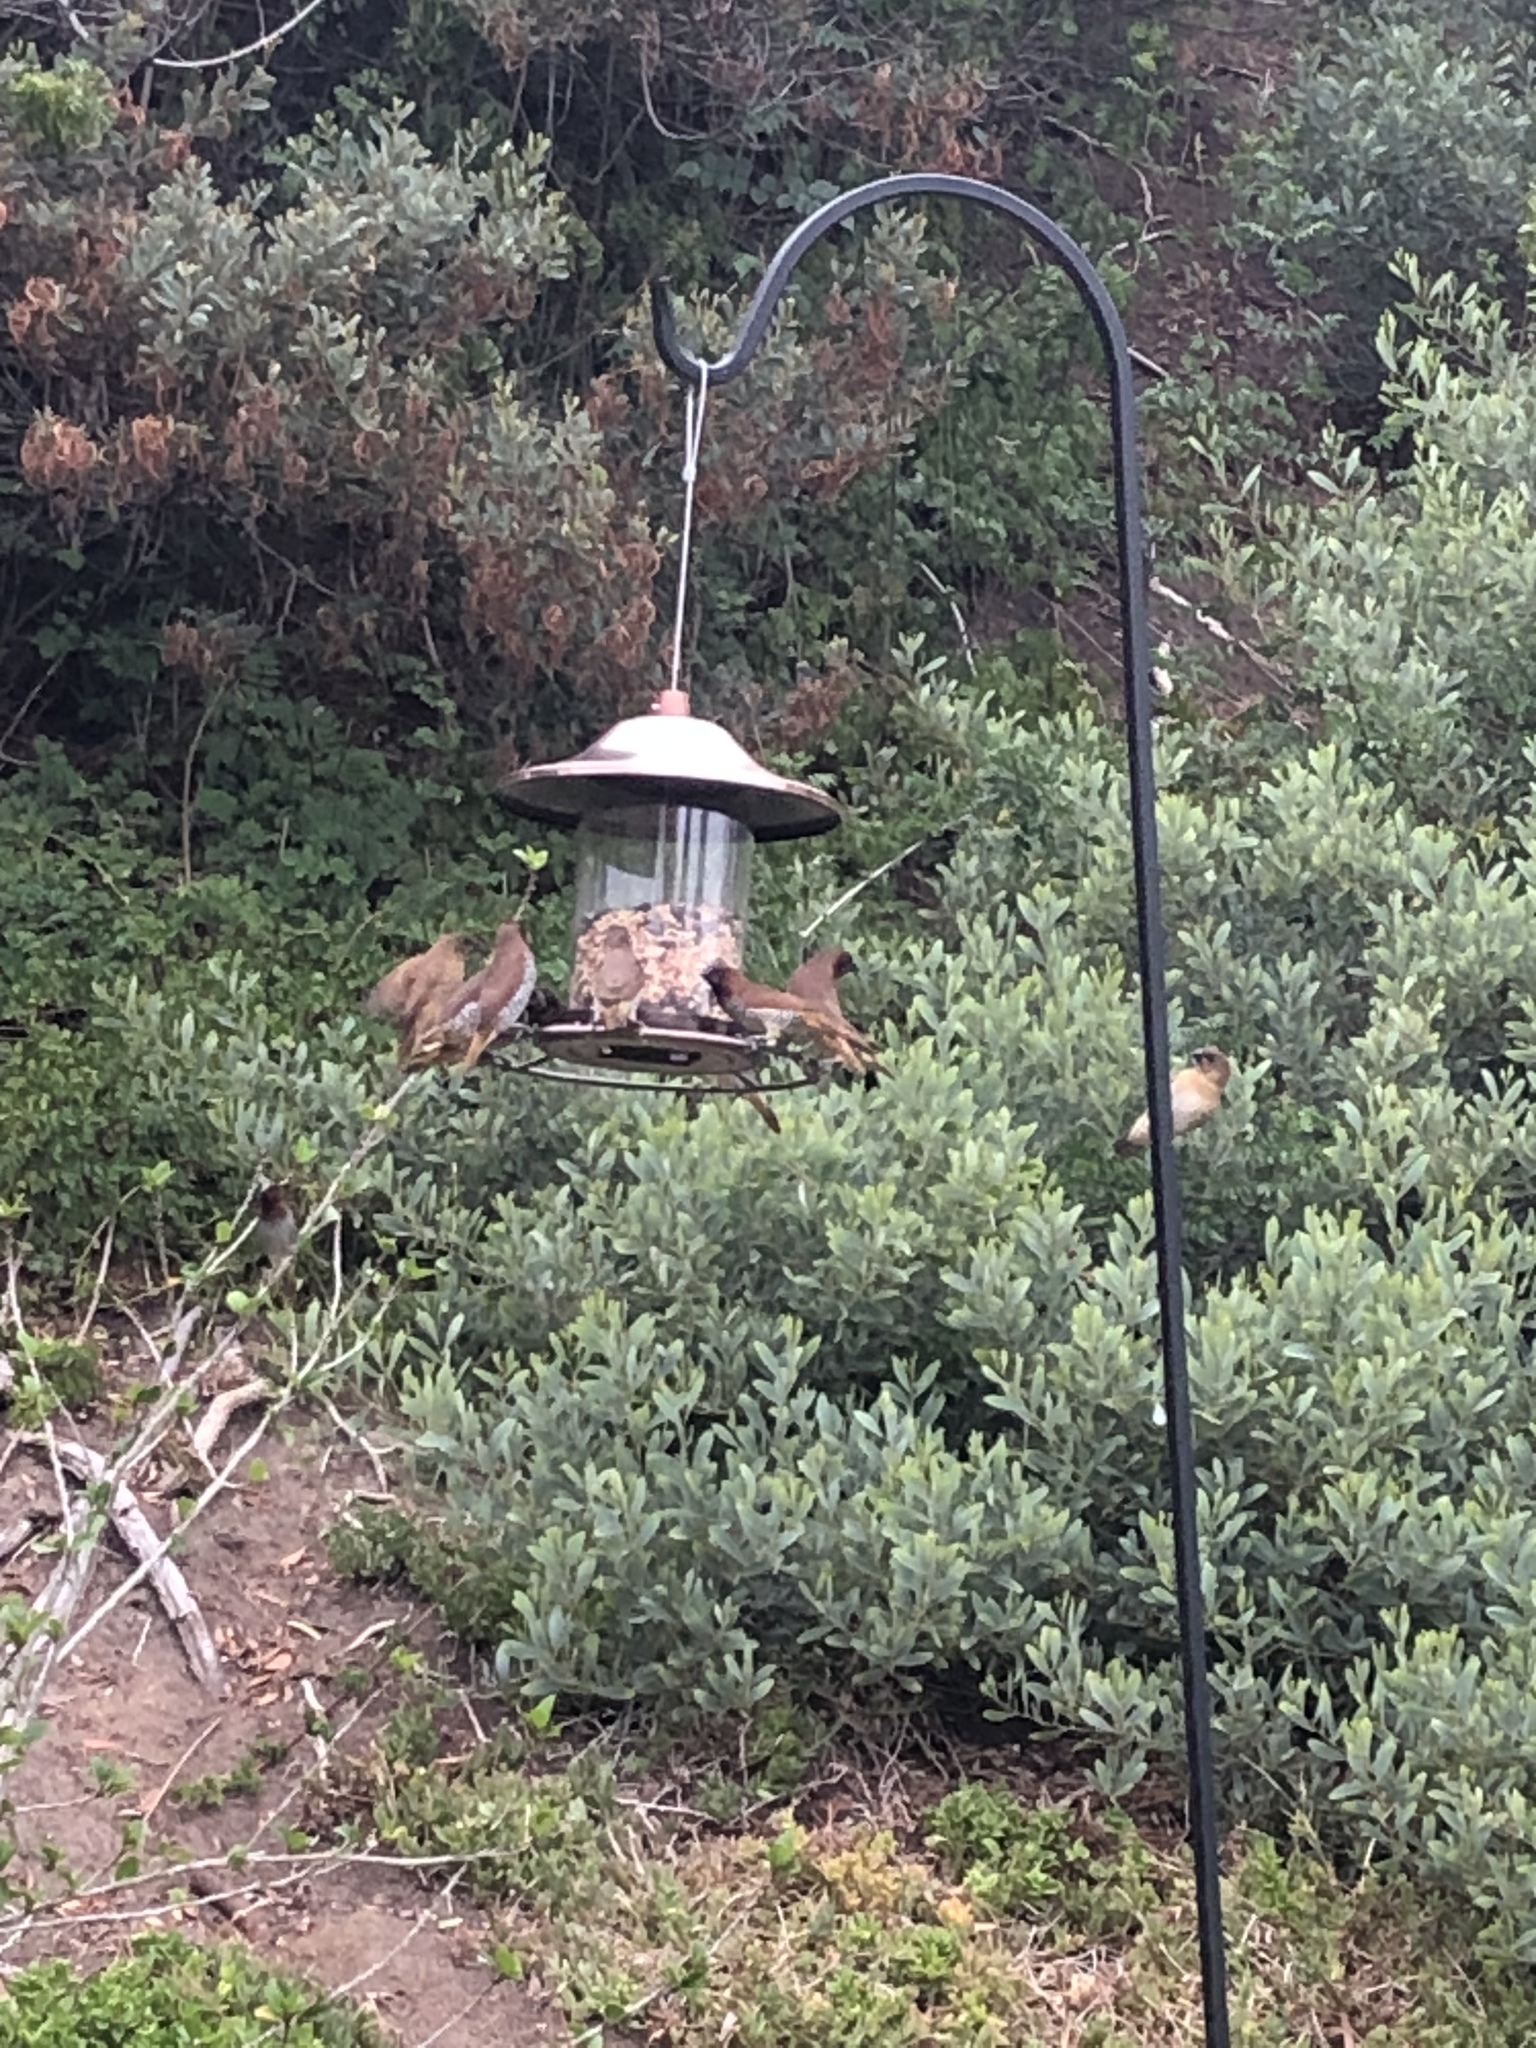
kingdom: Animalia
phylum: Chordata
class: Aves
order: Passeriformes
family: Estrildidae
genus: Lonchura
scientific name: Lonchura punctulata
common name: Scaly-breasted munia
